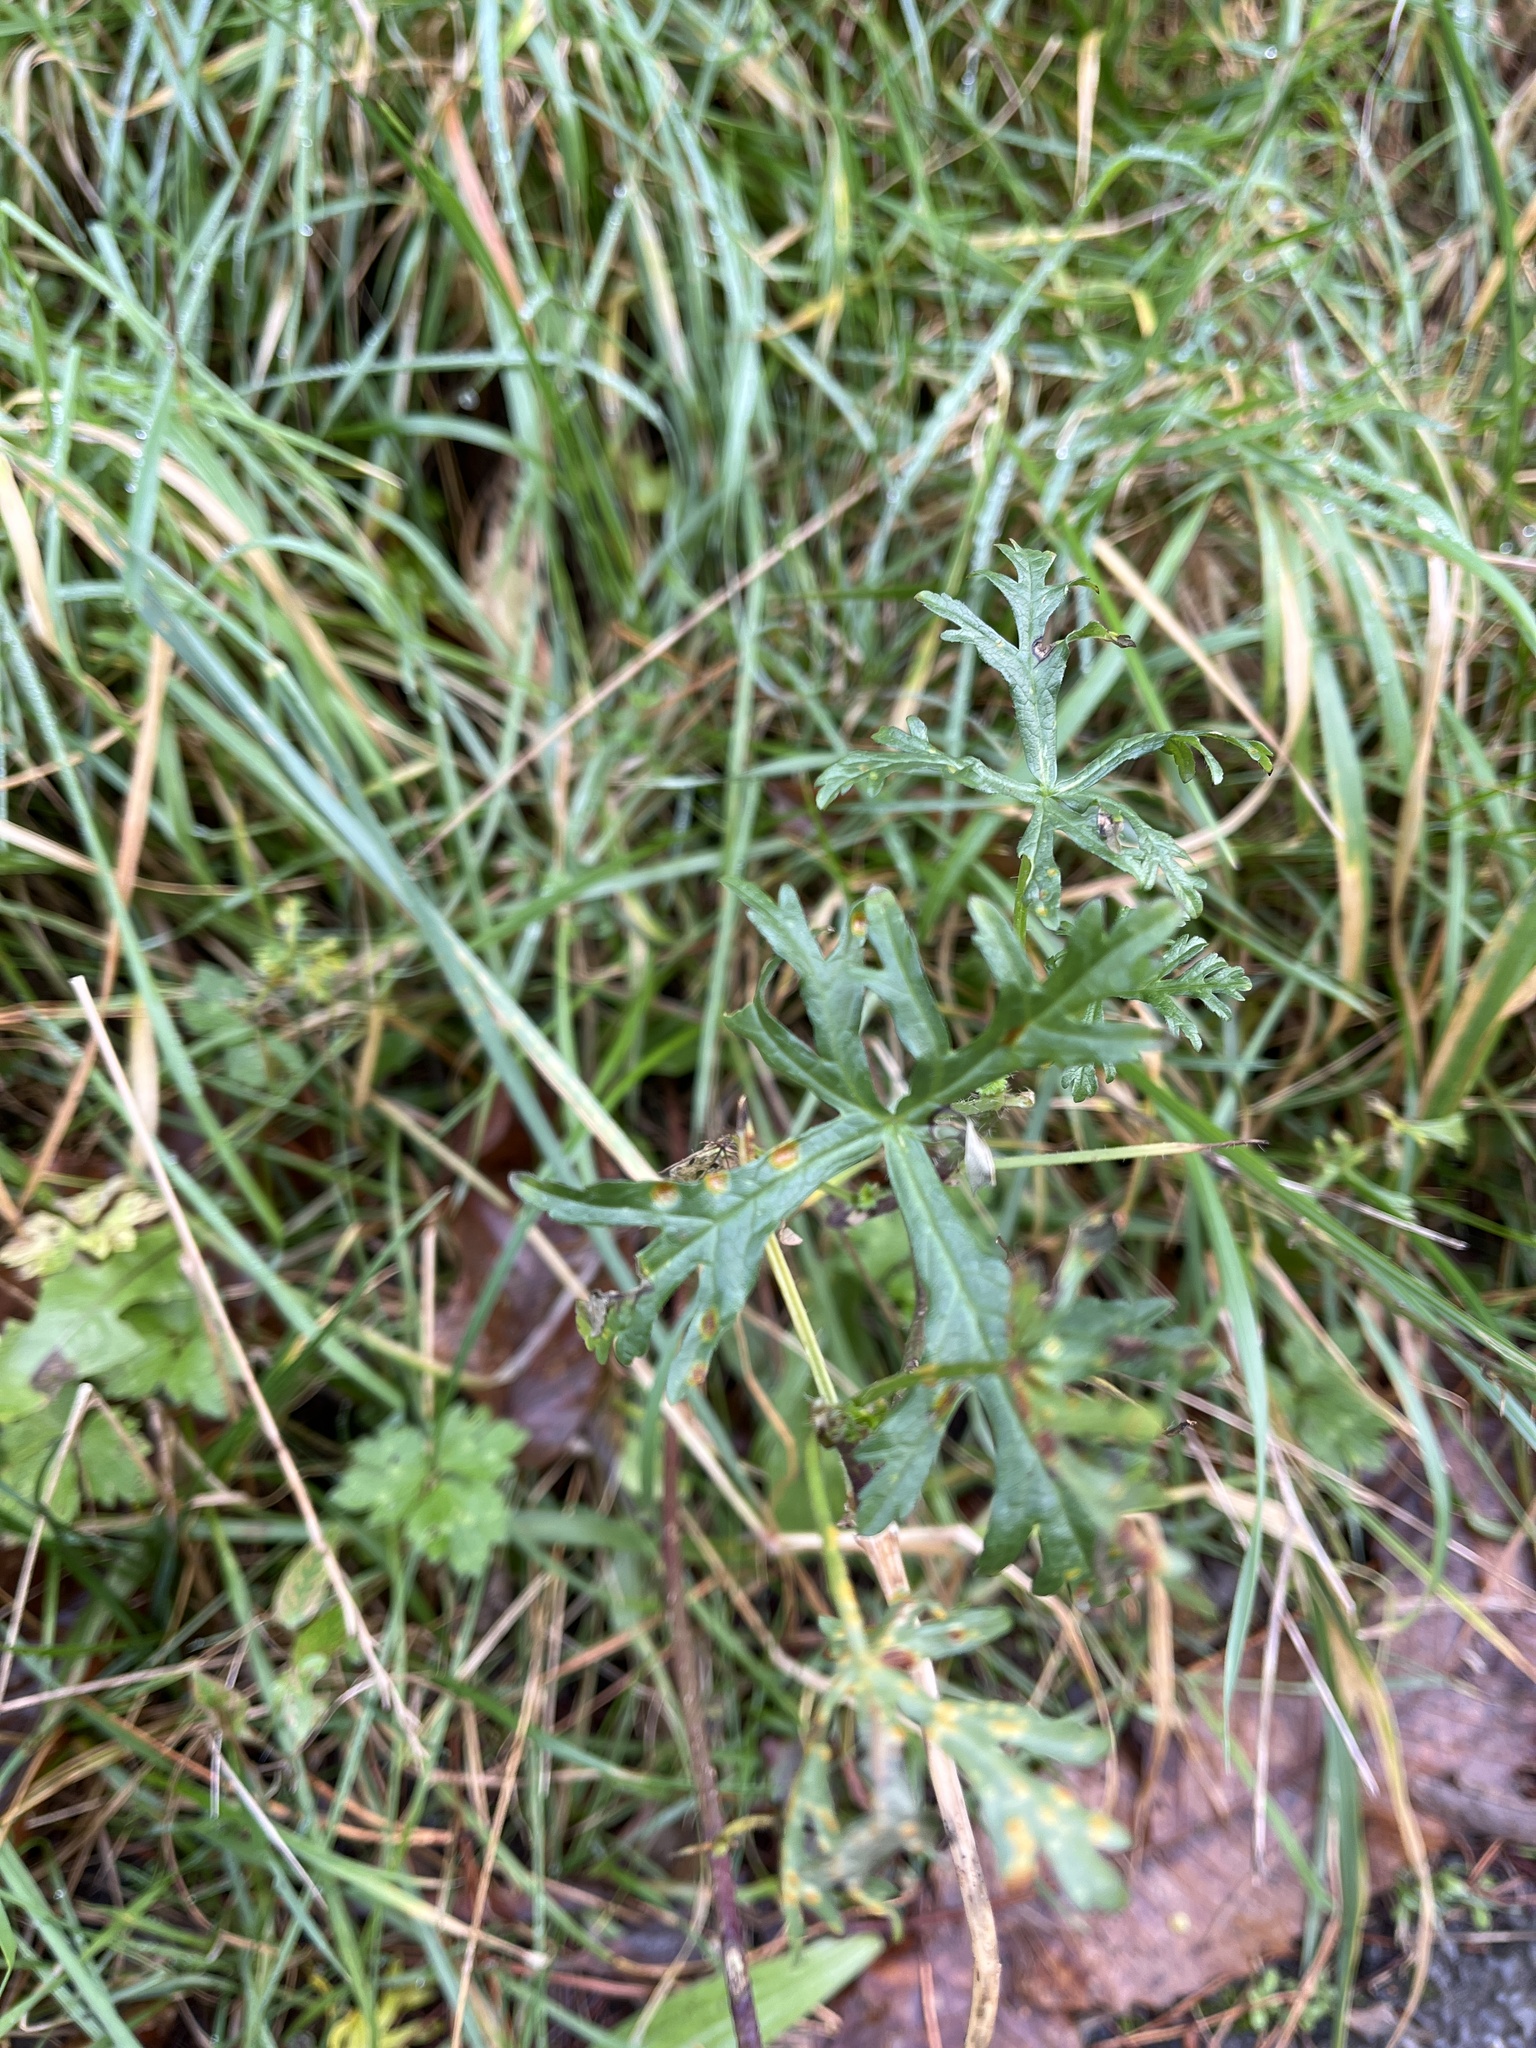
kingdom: Plantae
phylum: Tracheophyta
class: Magnoliopsida
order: Malvales
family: Malvaceae
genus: Malva
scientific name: Malva moschata
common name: Musk mallow
